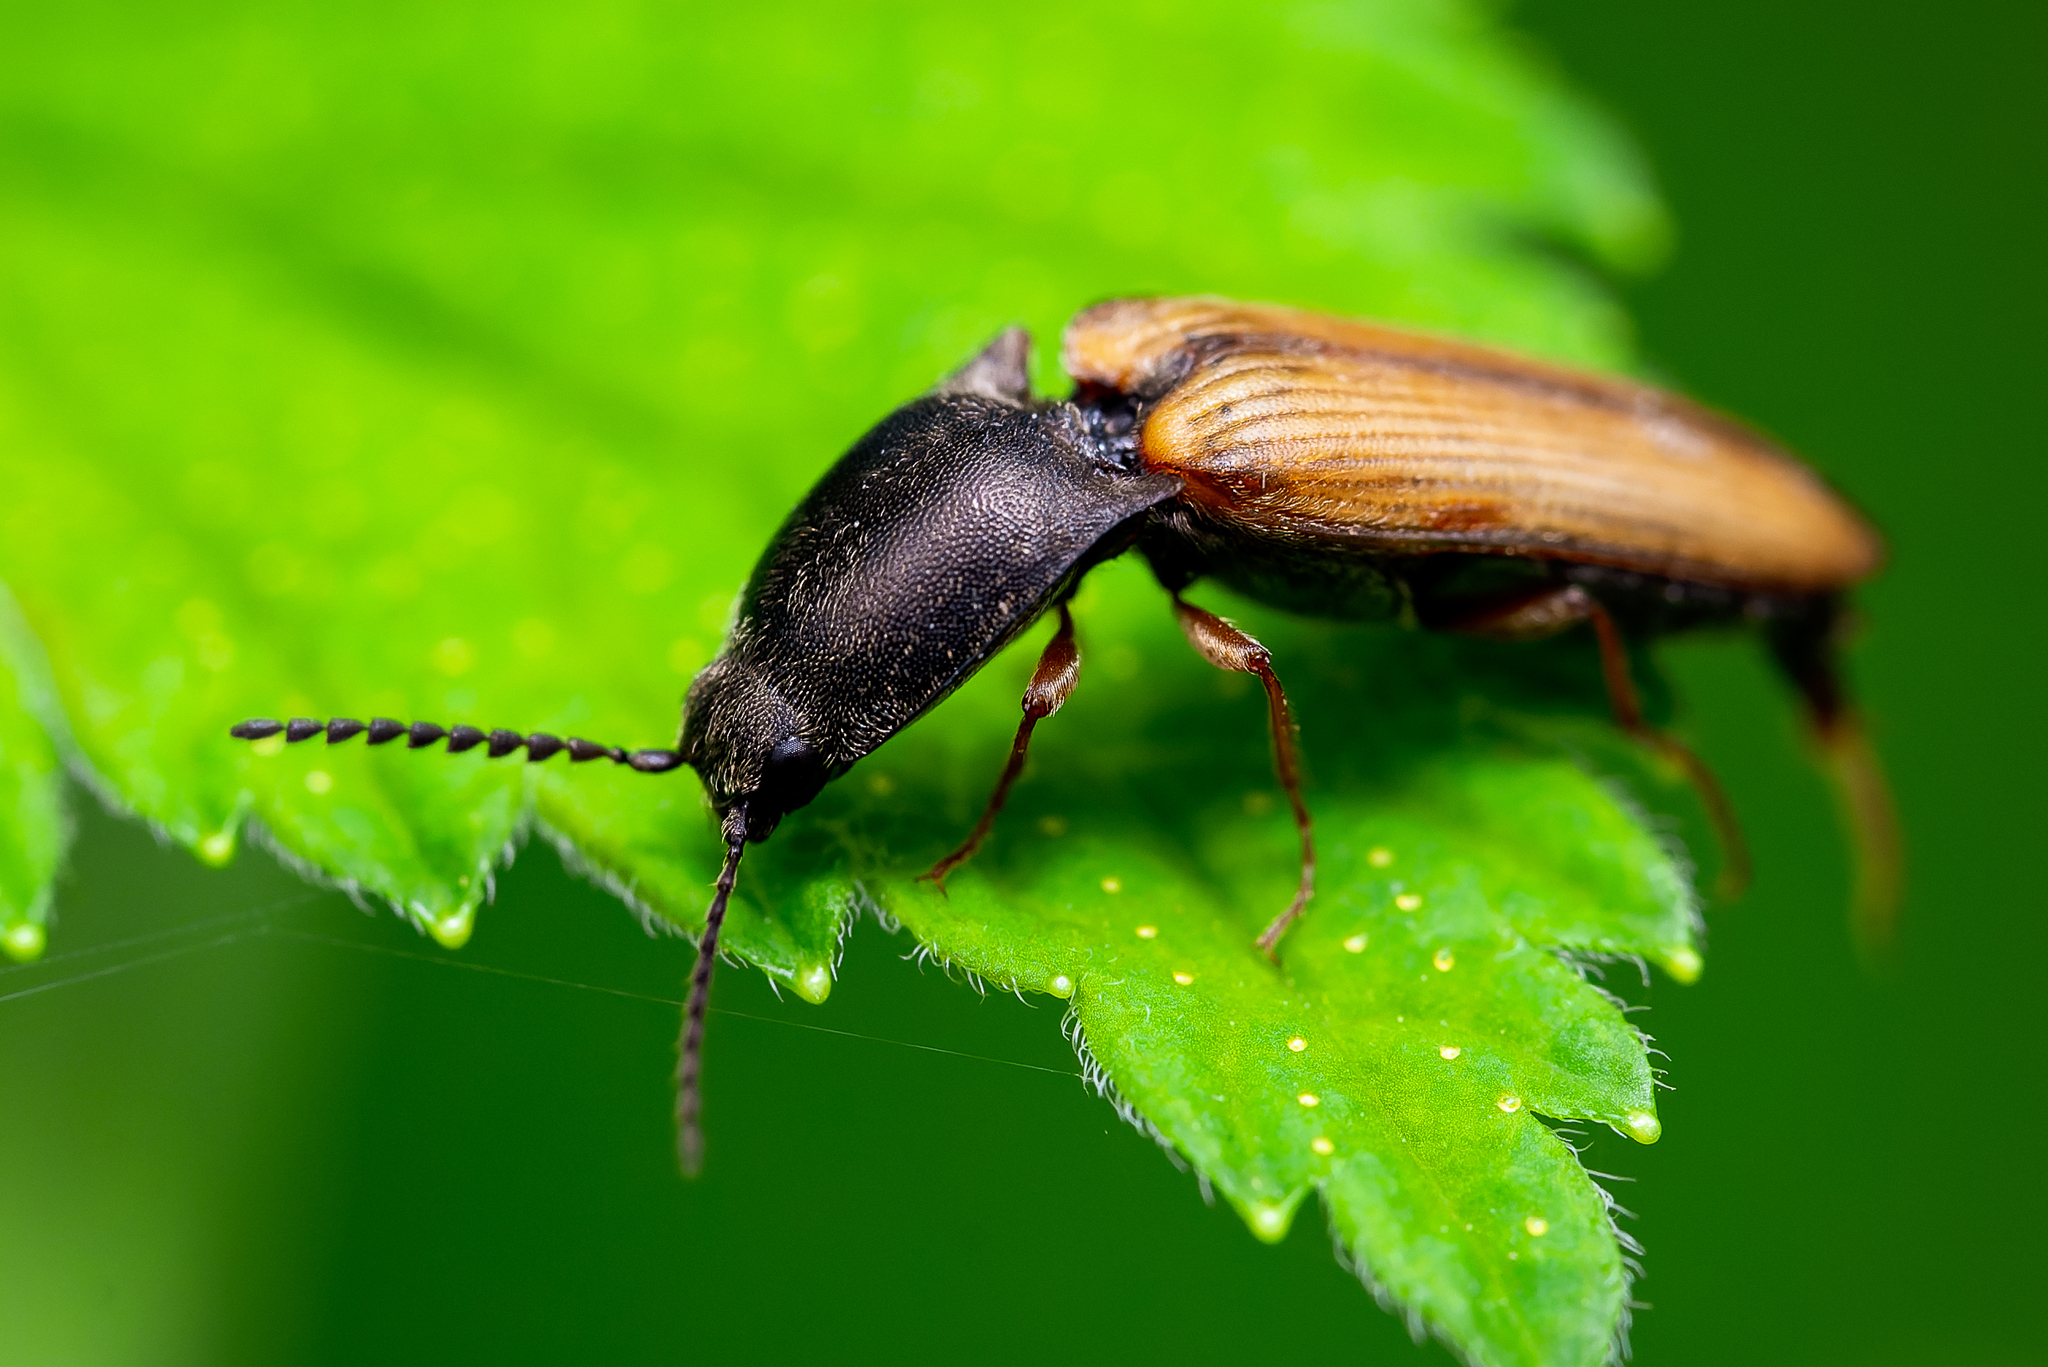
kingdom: Animalia
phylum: Arthropoda
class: Insecta
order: Coleoptera
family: Elateridae
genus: Corymbitodes
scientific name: Corymbitodes tarsalis
